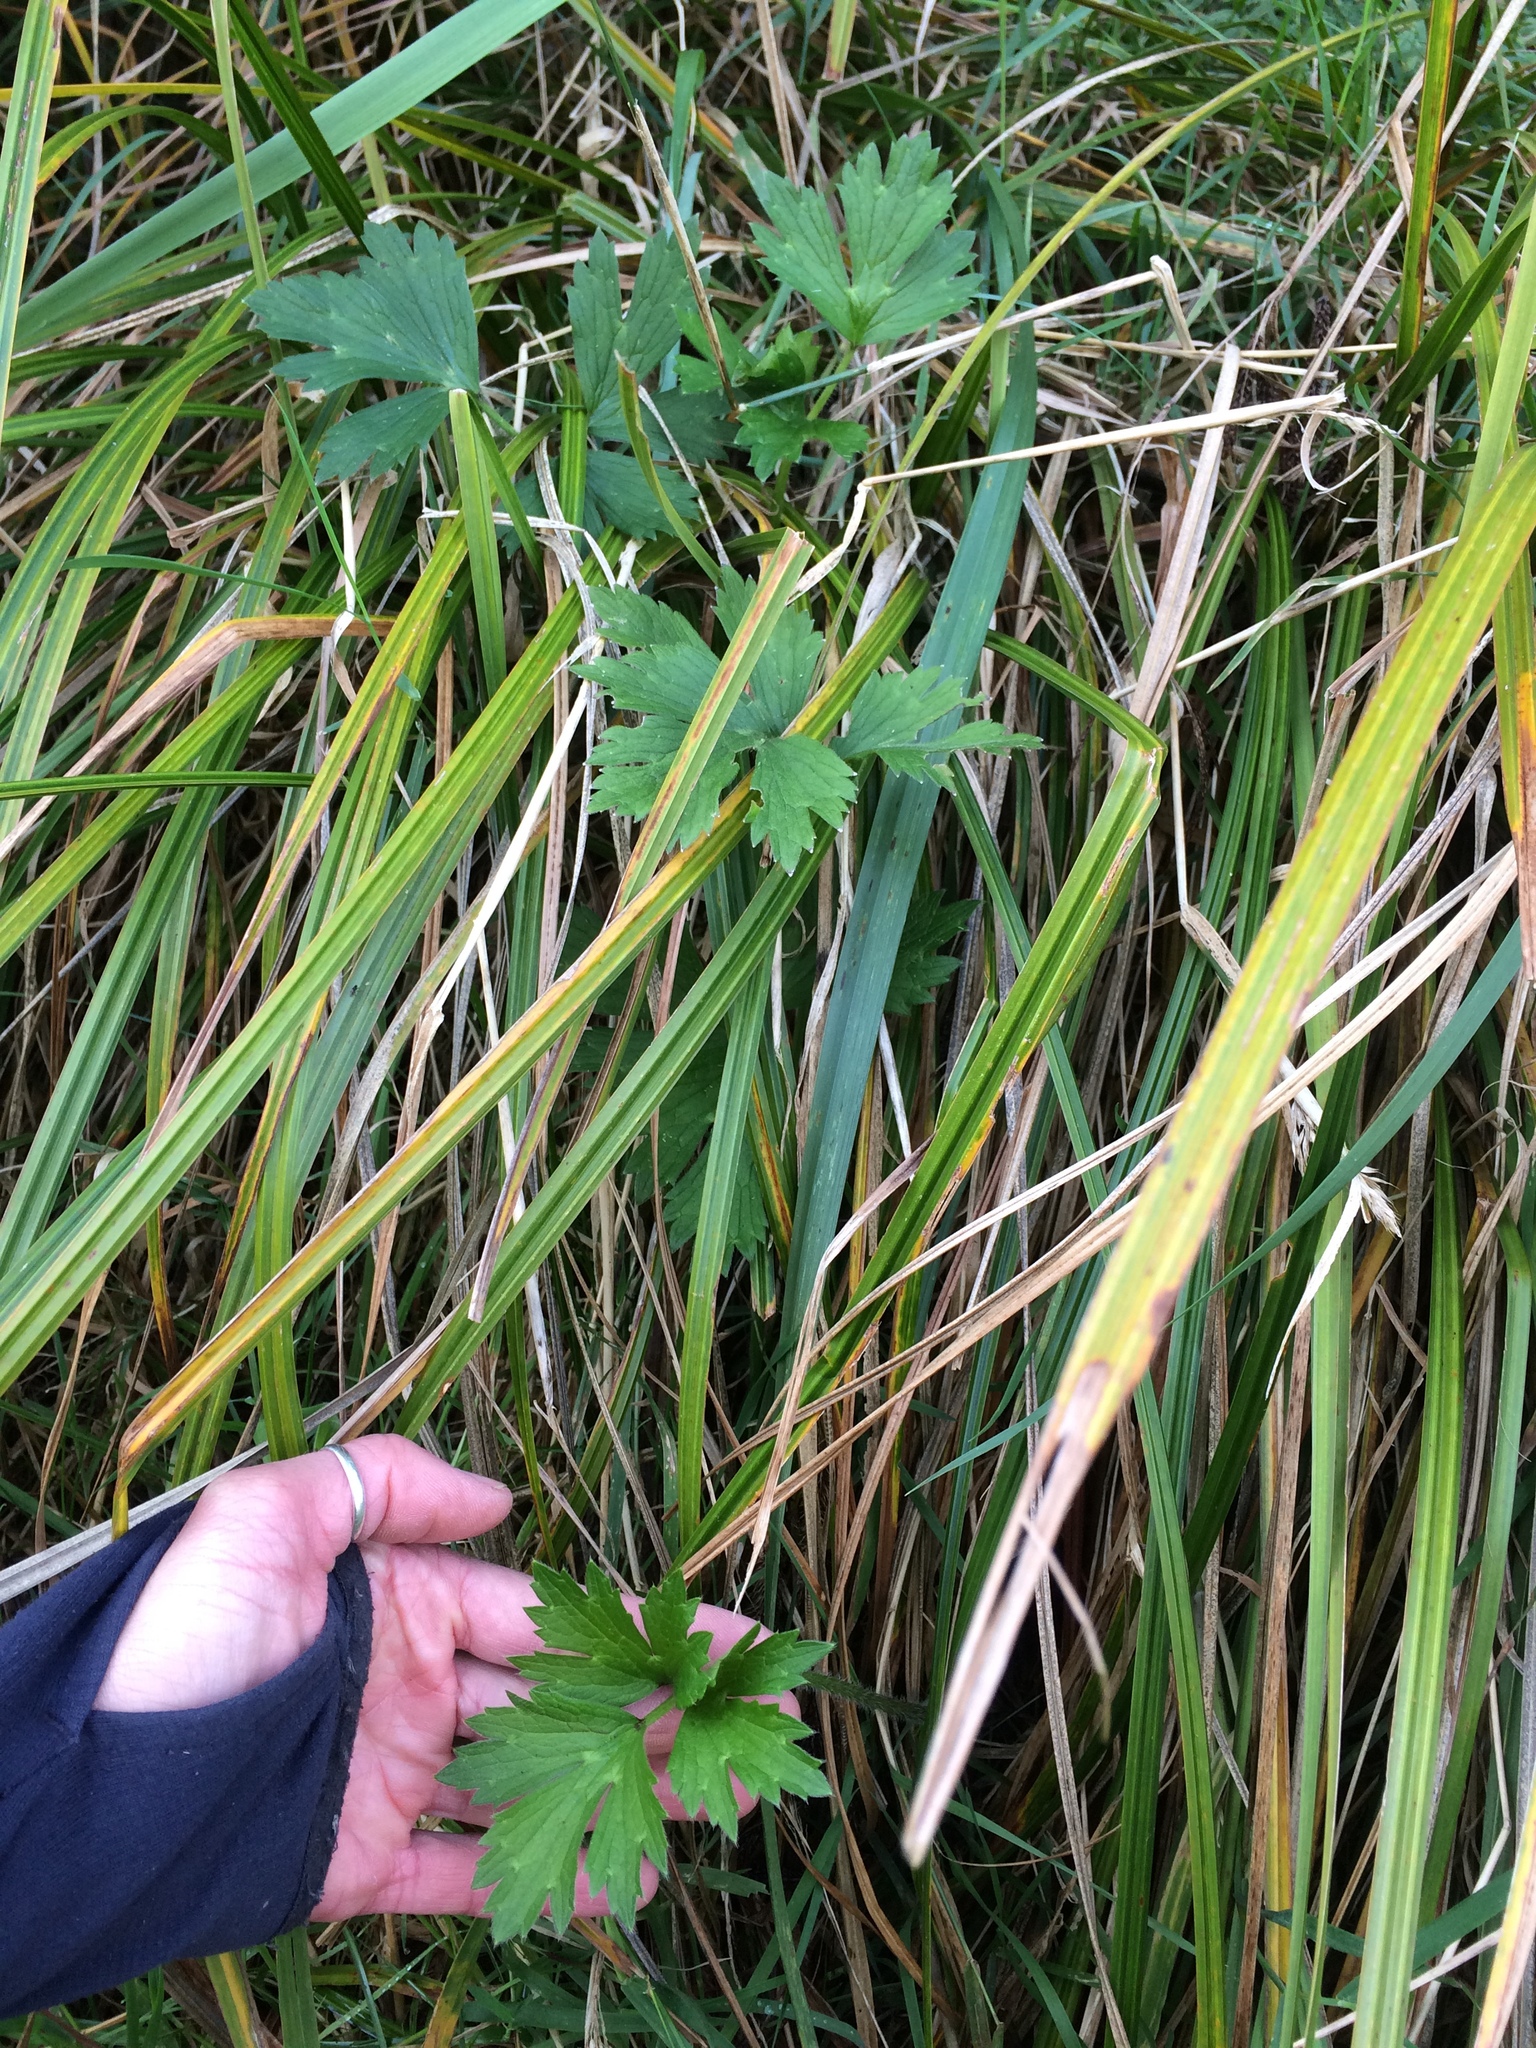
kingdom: Plantae
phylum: Tracheophyta
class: Magnoliopsida
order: Ranunculales
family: Ranunculaceae
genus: Ranunculus
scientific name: Ranunculus repens
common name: Creeping buttercup
